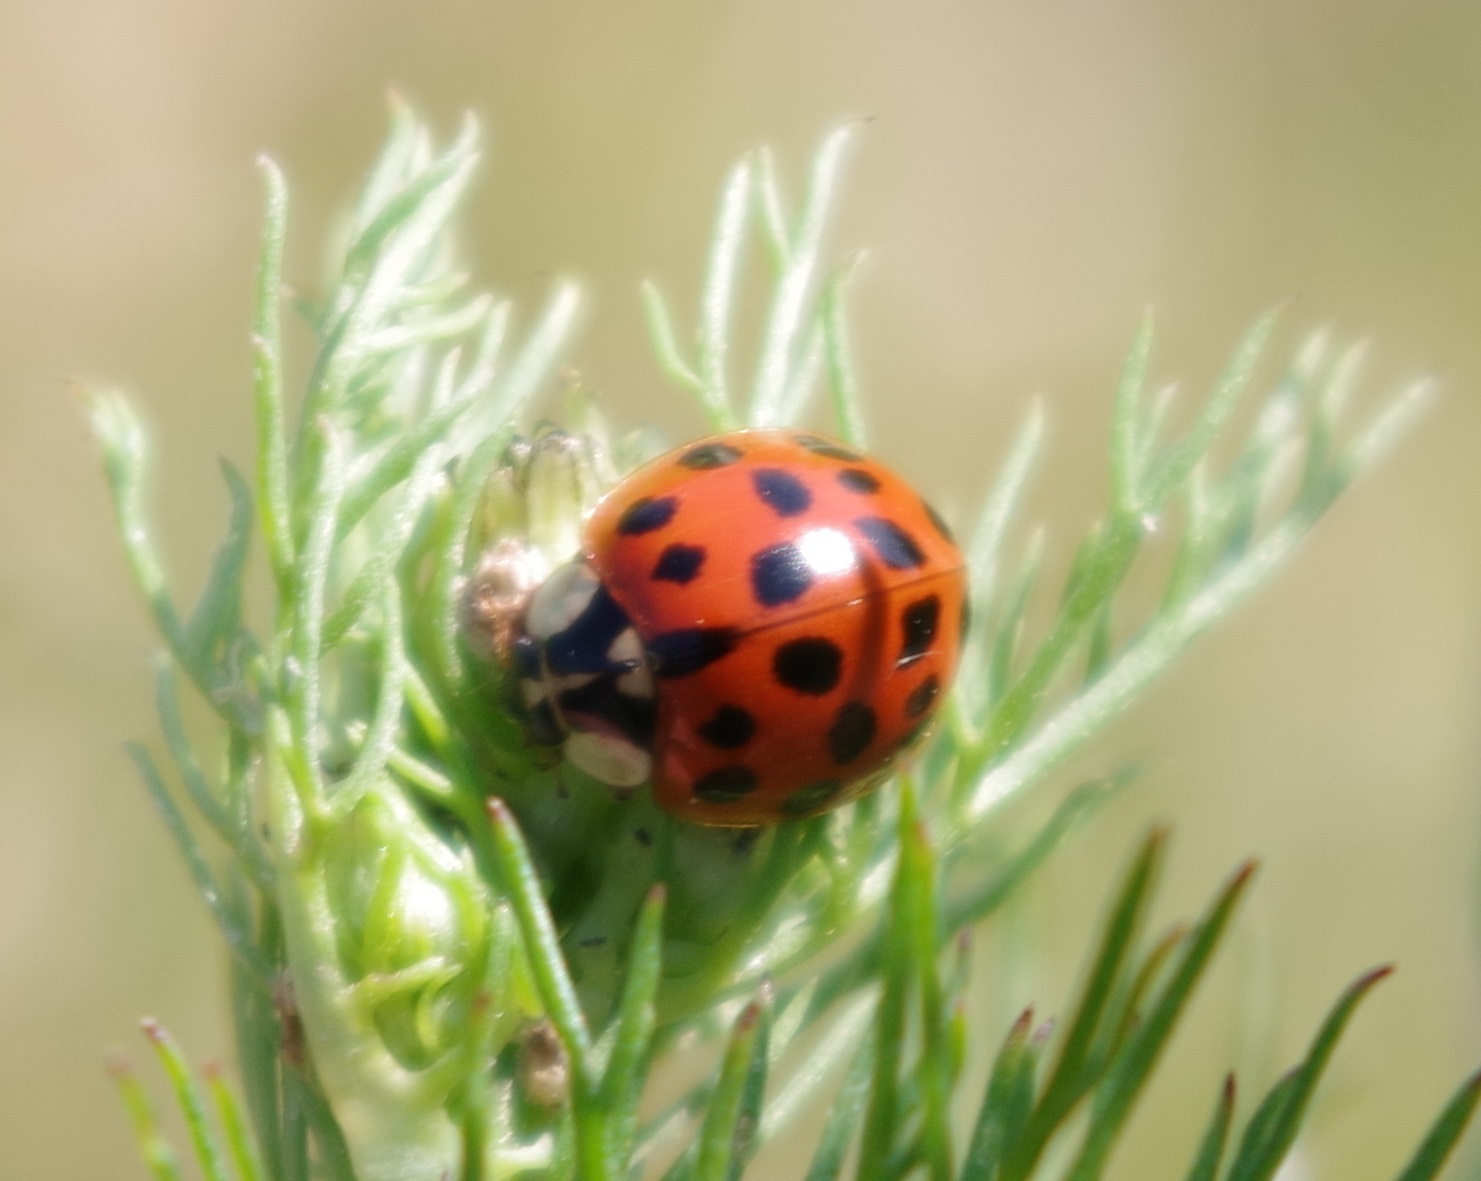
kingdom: Animalia
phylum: Arthropoda
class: Insecta
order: Coleoptera
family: Coccinellidae
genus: Harmonia
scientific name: Harmonia axyridis
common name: Harlequin ladybird
